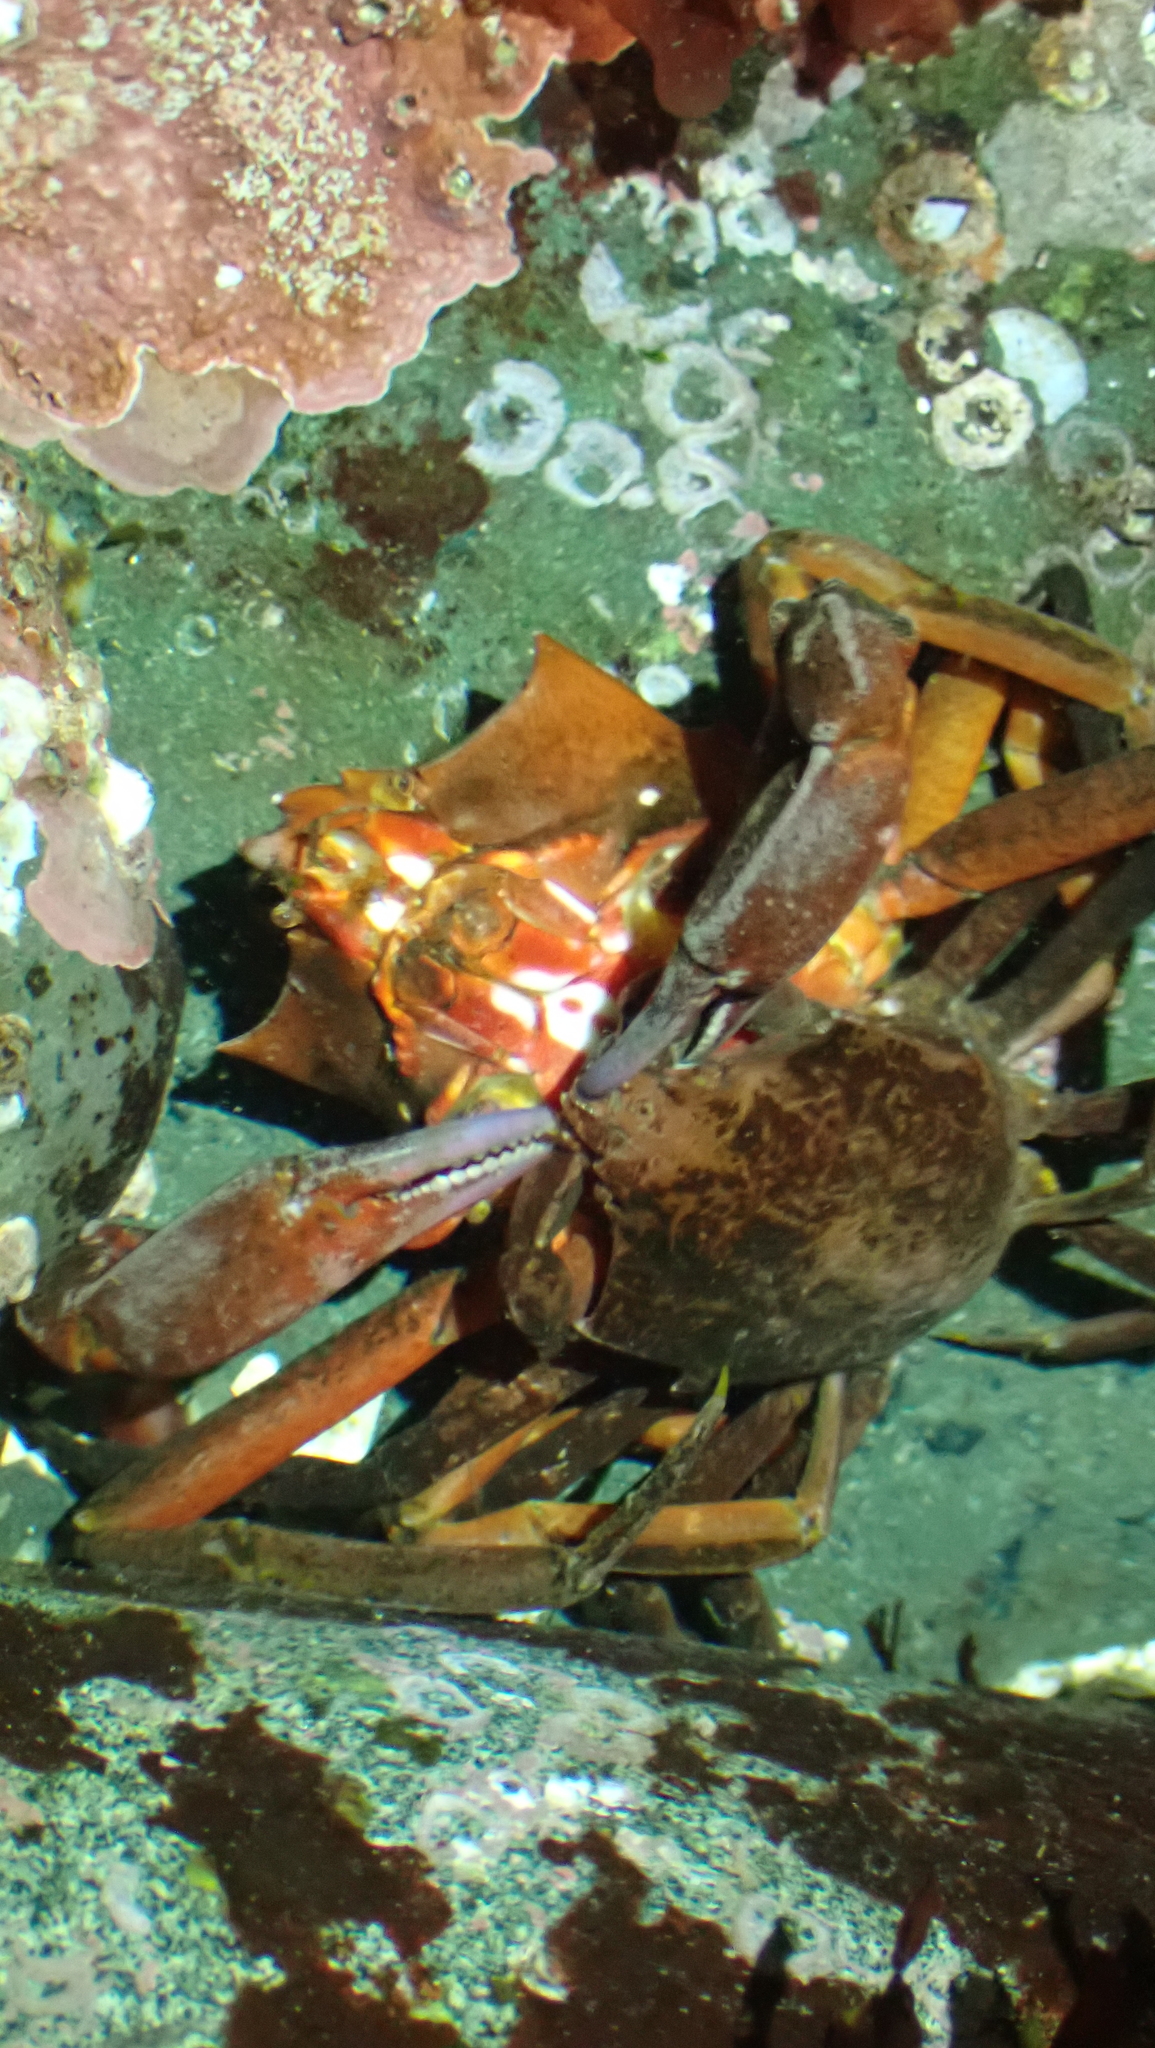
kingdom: Animalia
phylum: Arthropoda
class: Malacostraca
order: Decapoda
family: Epialtidae
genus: Pugettia
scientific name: Pugettia producta
